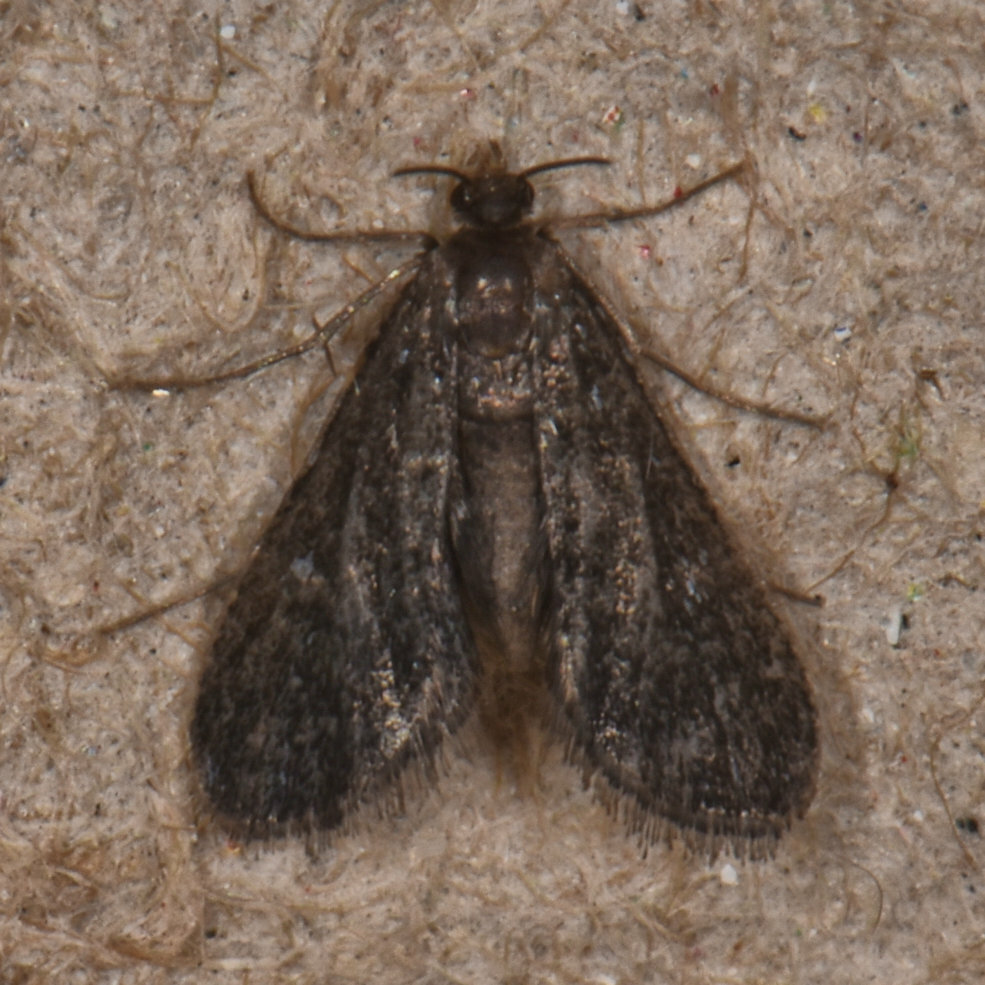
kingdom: Animalia
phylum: Arthropoda
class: Insecta
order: Lepidoptera
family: Crambidae
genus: Elophila
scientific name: Elophila tinealis
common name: Black duckweed moth
